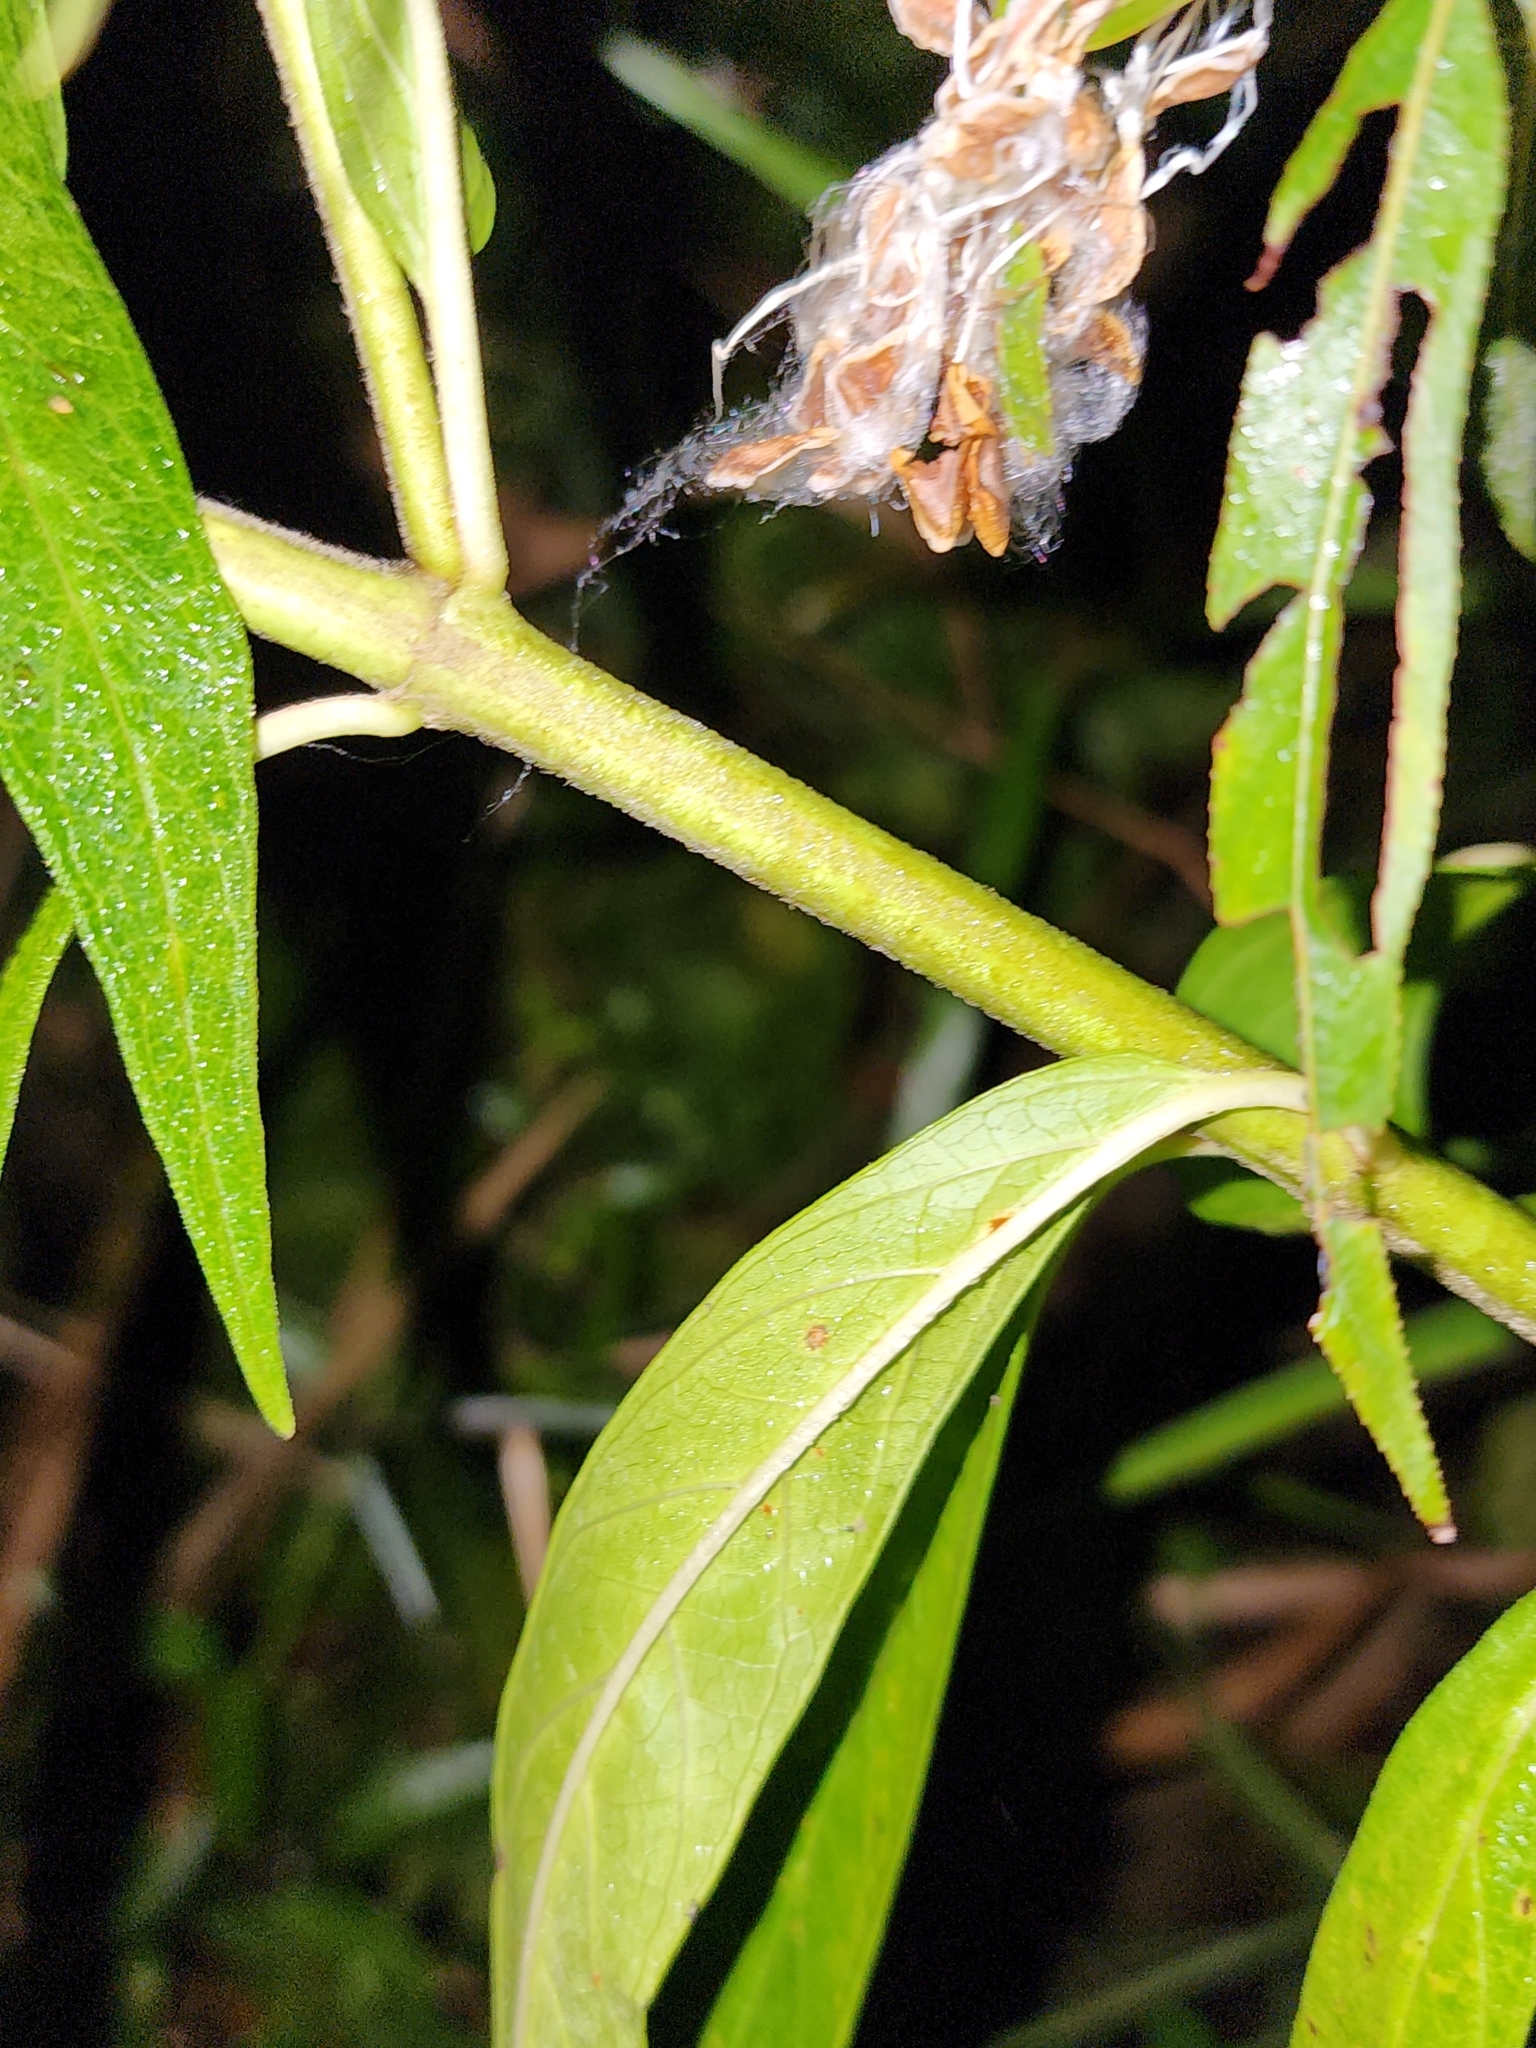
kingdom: Plantae
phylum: Tracheophyta
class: Magnoliopsida
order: Gentianales
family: Apocynaceae
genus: Asclepias
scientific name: Asclepias incarnata
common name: Swamp milkweed
